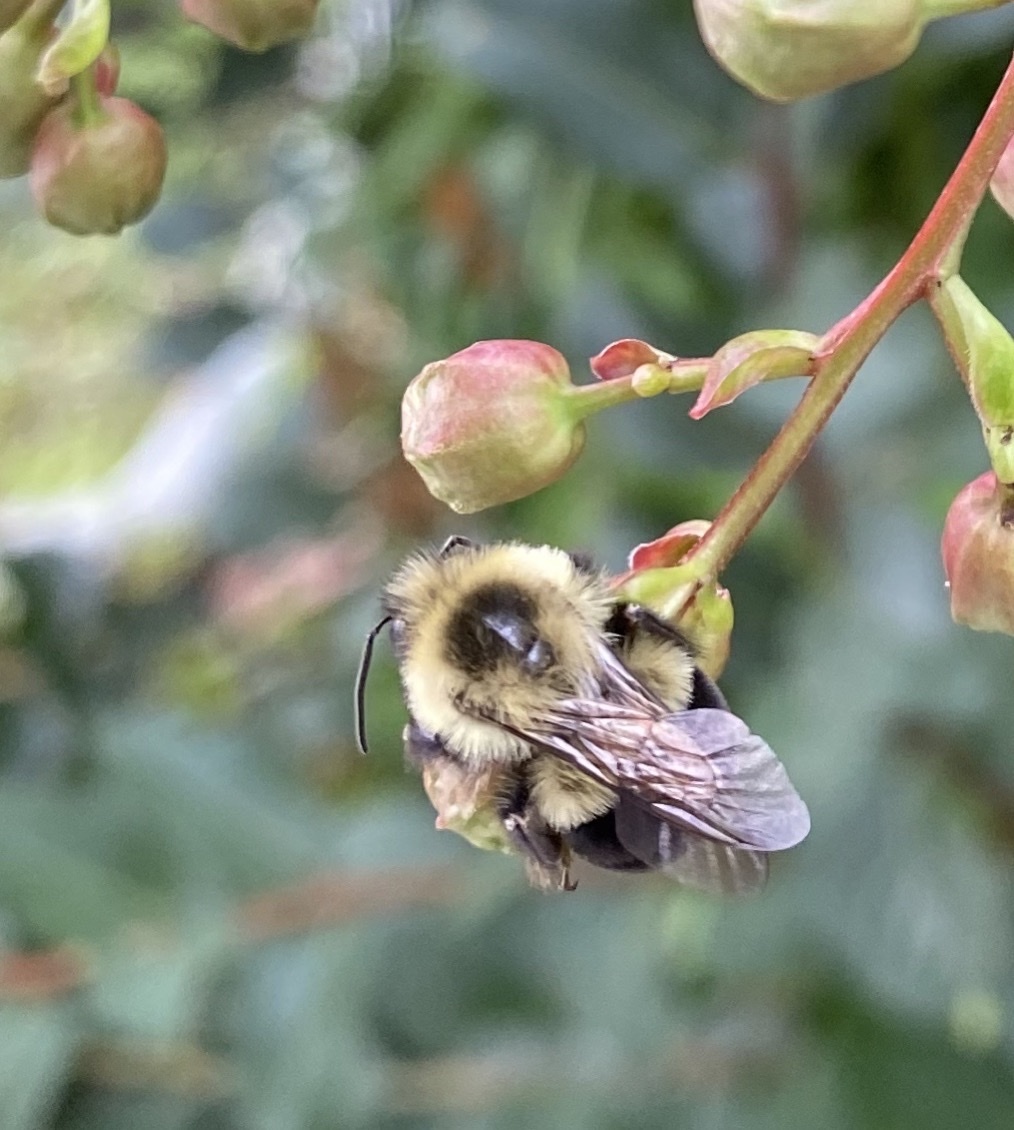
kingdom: Animalia
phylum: Arthropoda
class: Insecta
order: Hymenoptera
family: Apidae
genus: Bombus
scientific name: Bombus impatiens
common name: Common eastern bumble bee
